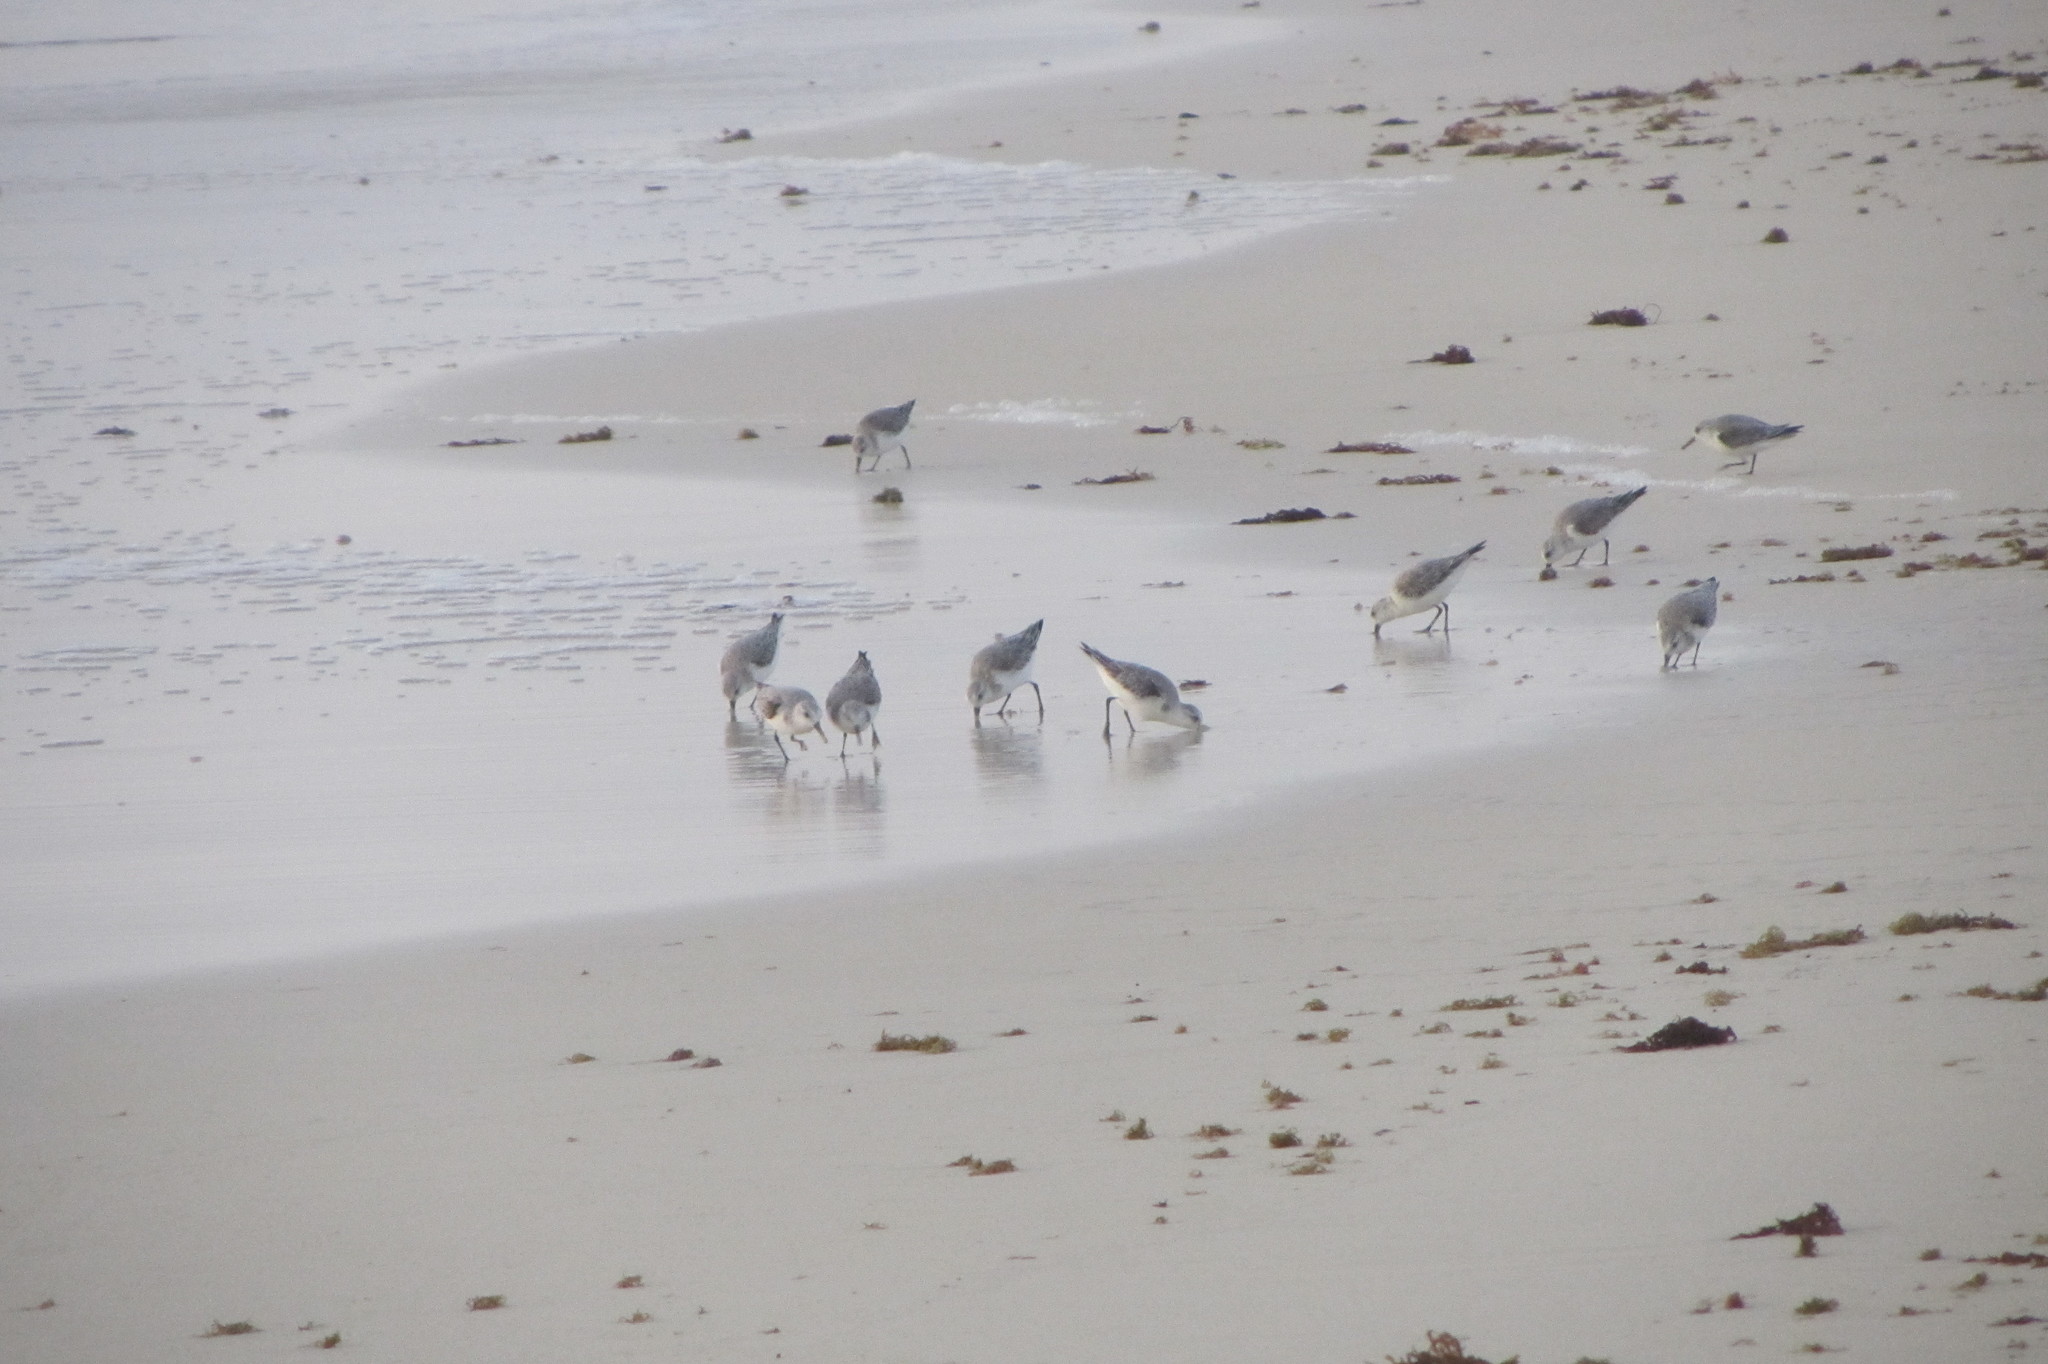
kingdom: Animalia
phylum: Chordata
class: Aves
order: Charadriiformes
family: Scolopacidae
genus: Calidris
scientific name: Calidris alba
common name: Sanderling
